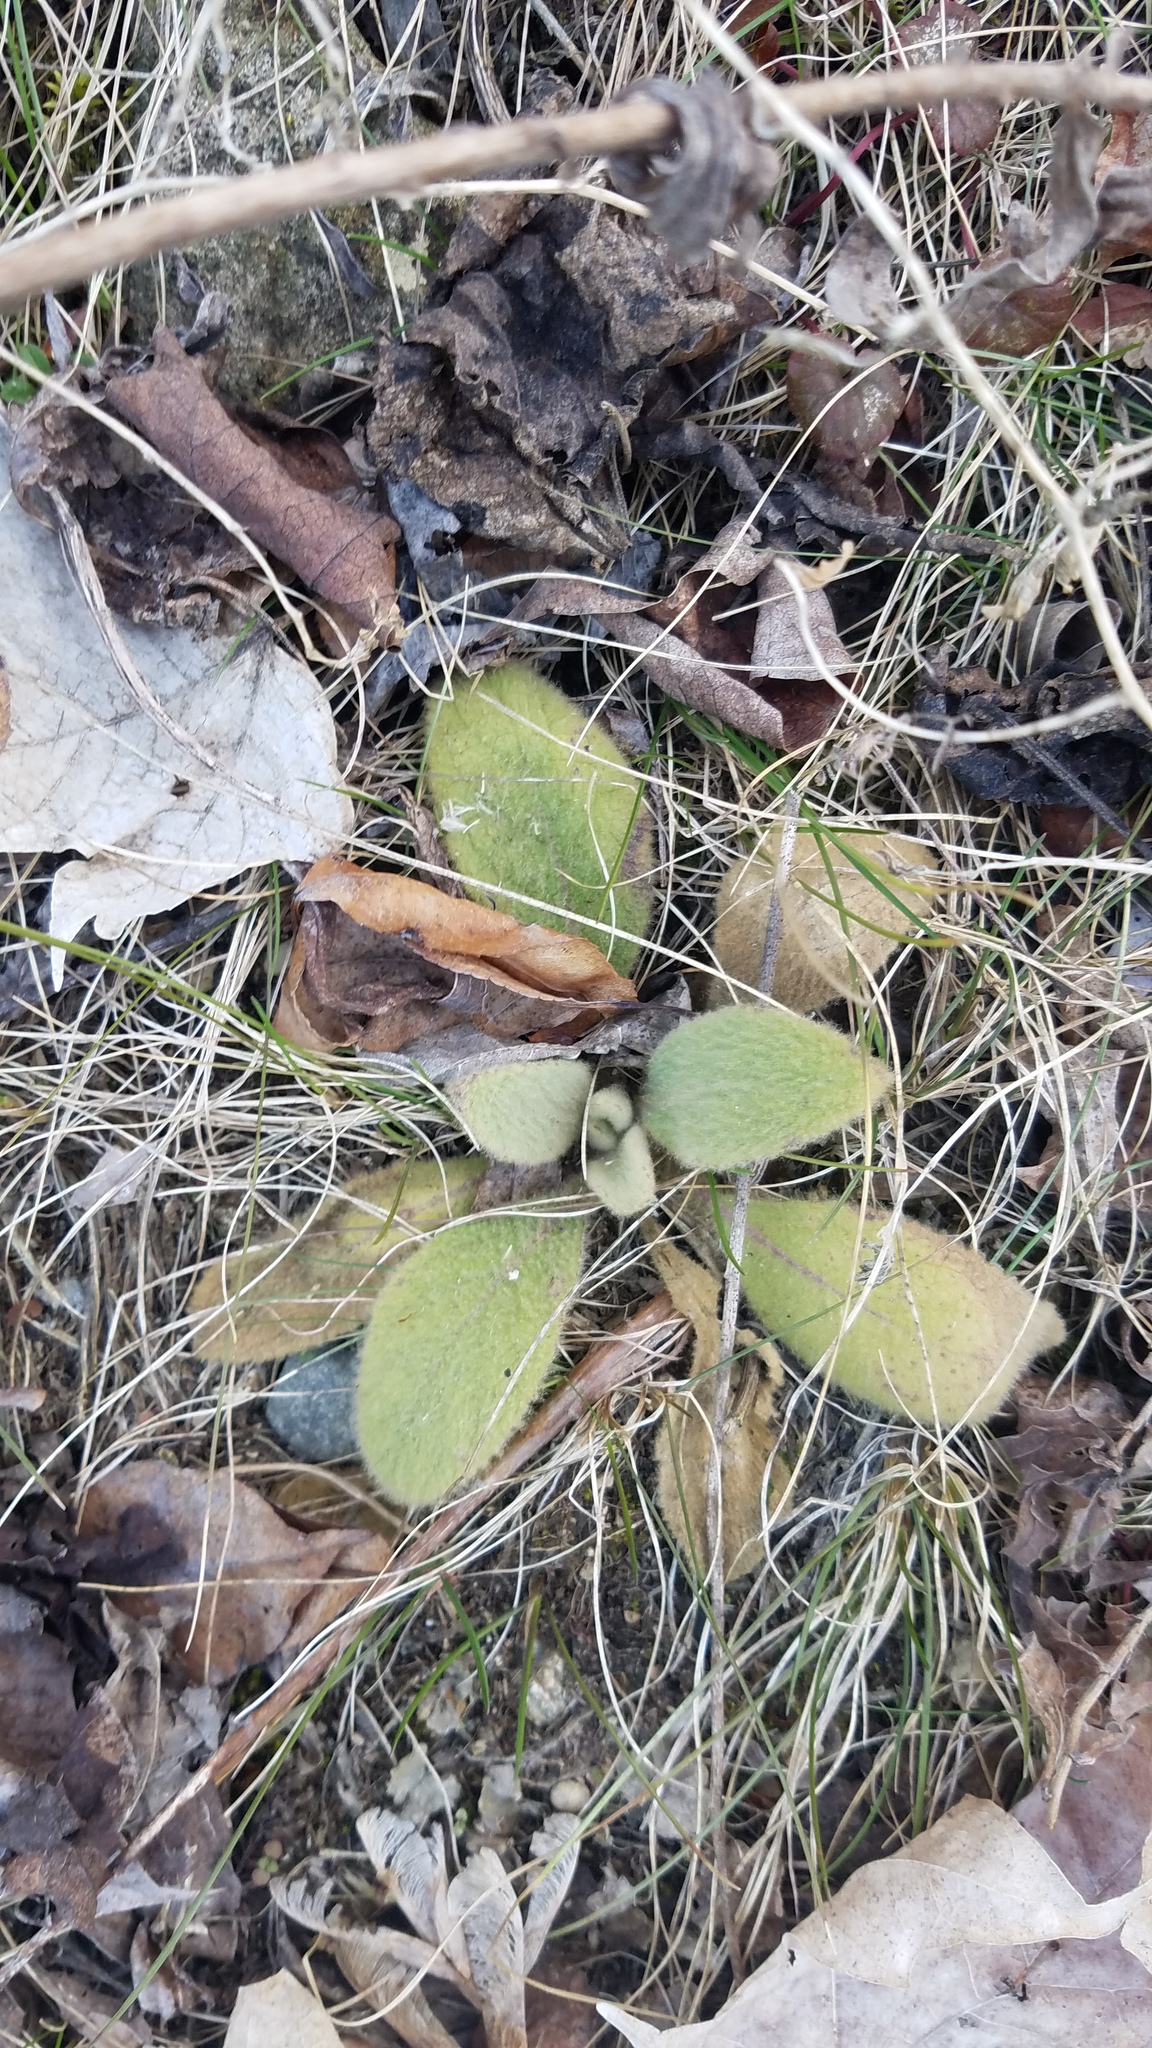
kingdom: Plantae
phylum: Tracheophyta
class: Magnoliopsida
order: Lamiales
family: Scrophulariaceae
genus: Verbascum
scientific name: Verbascum thapsus
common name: Common mullein
